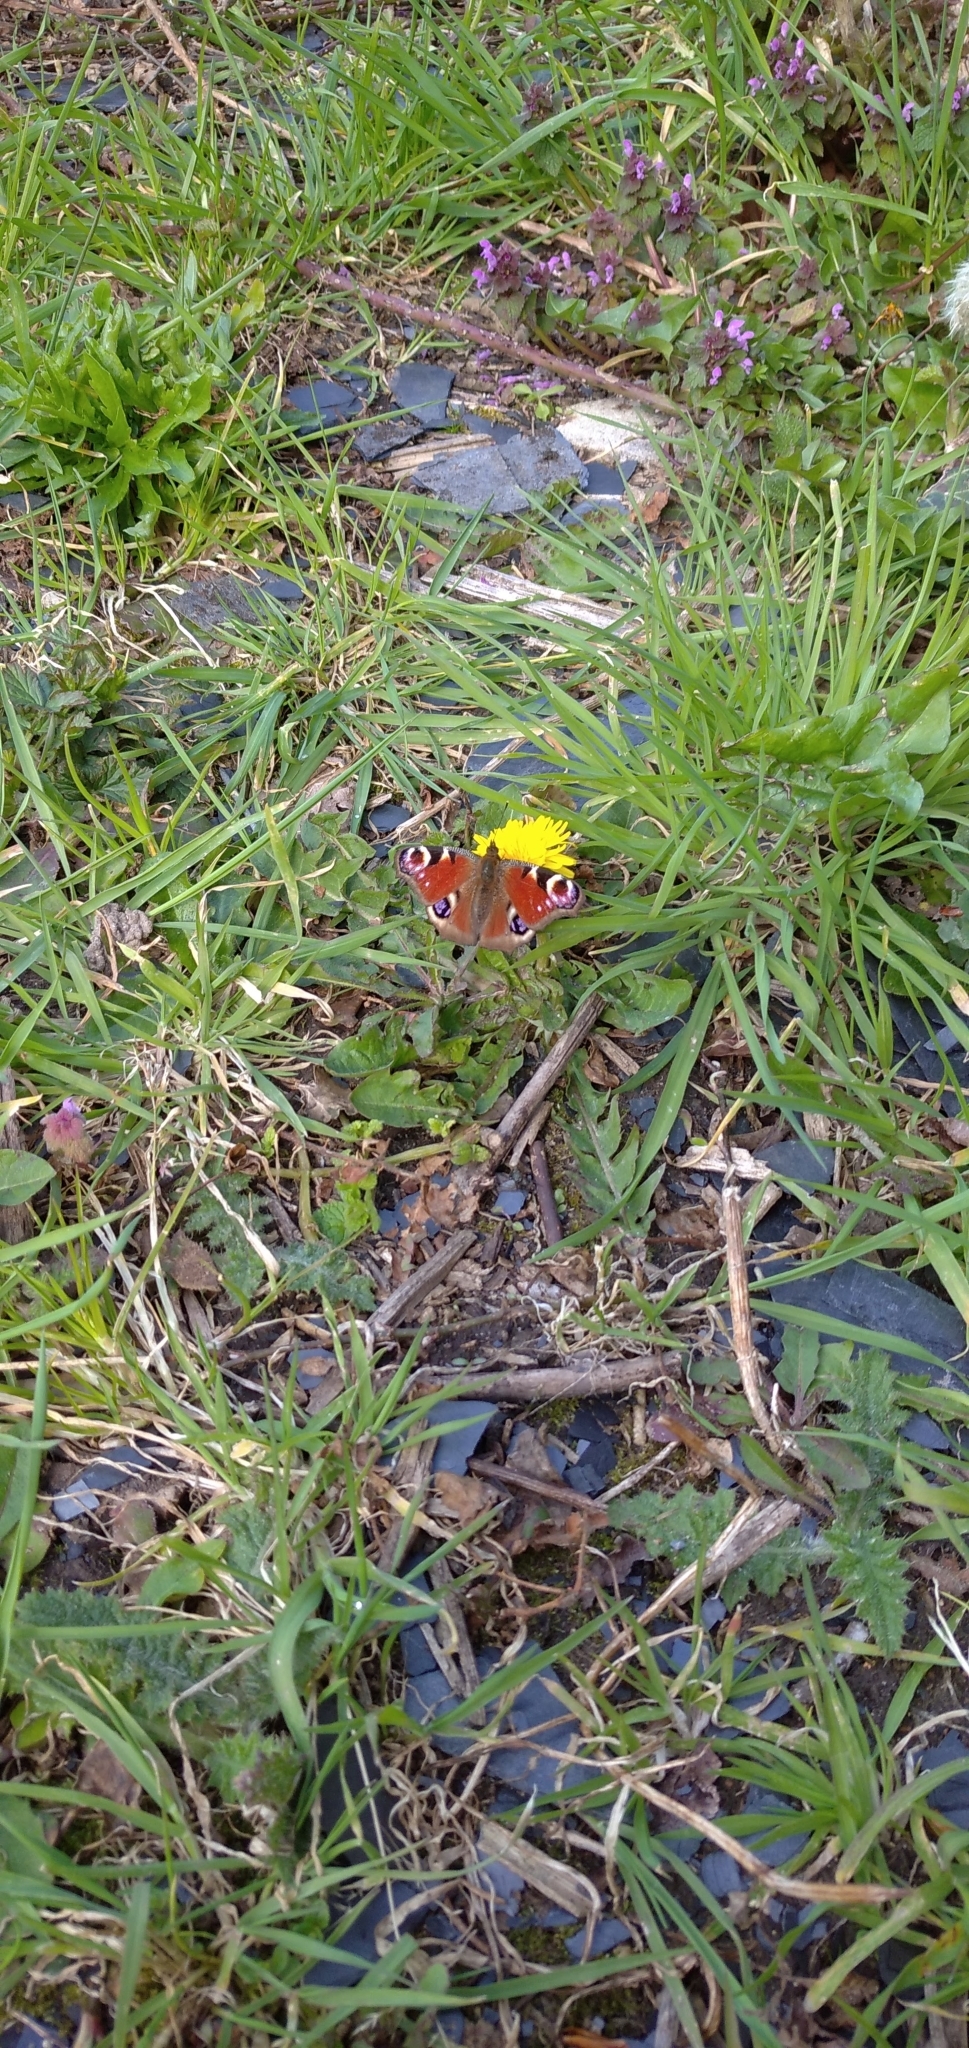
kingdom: Animalia
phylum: Arthropoda
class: Insecta
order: Lepidoptera
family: Nymphalidae
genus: Aglais
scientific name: Aglais io
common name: Peacock
